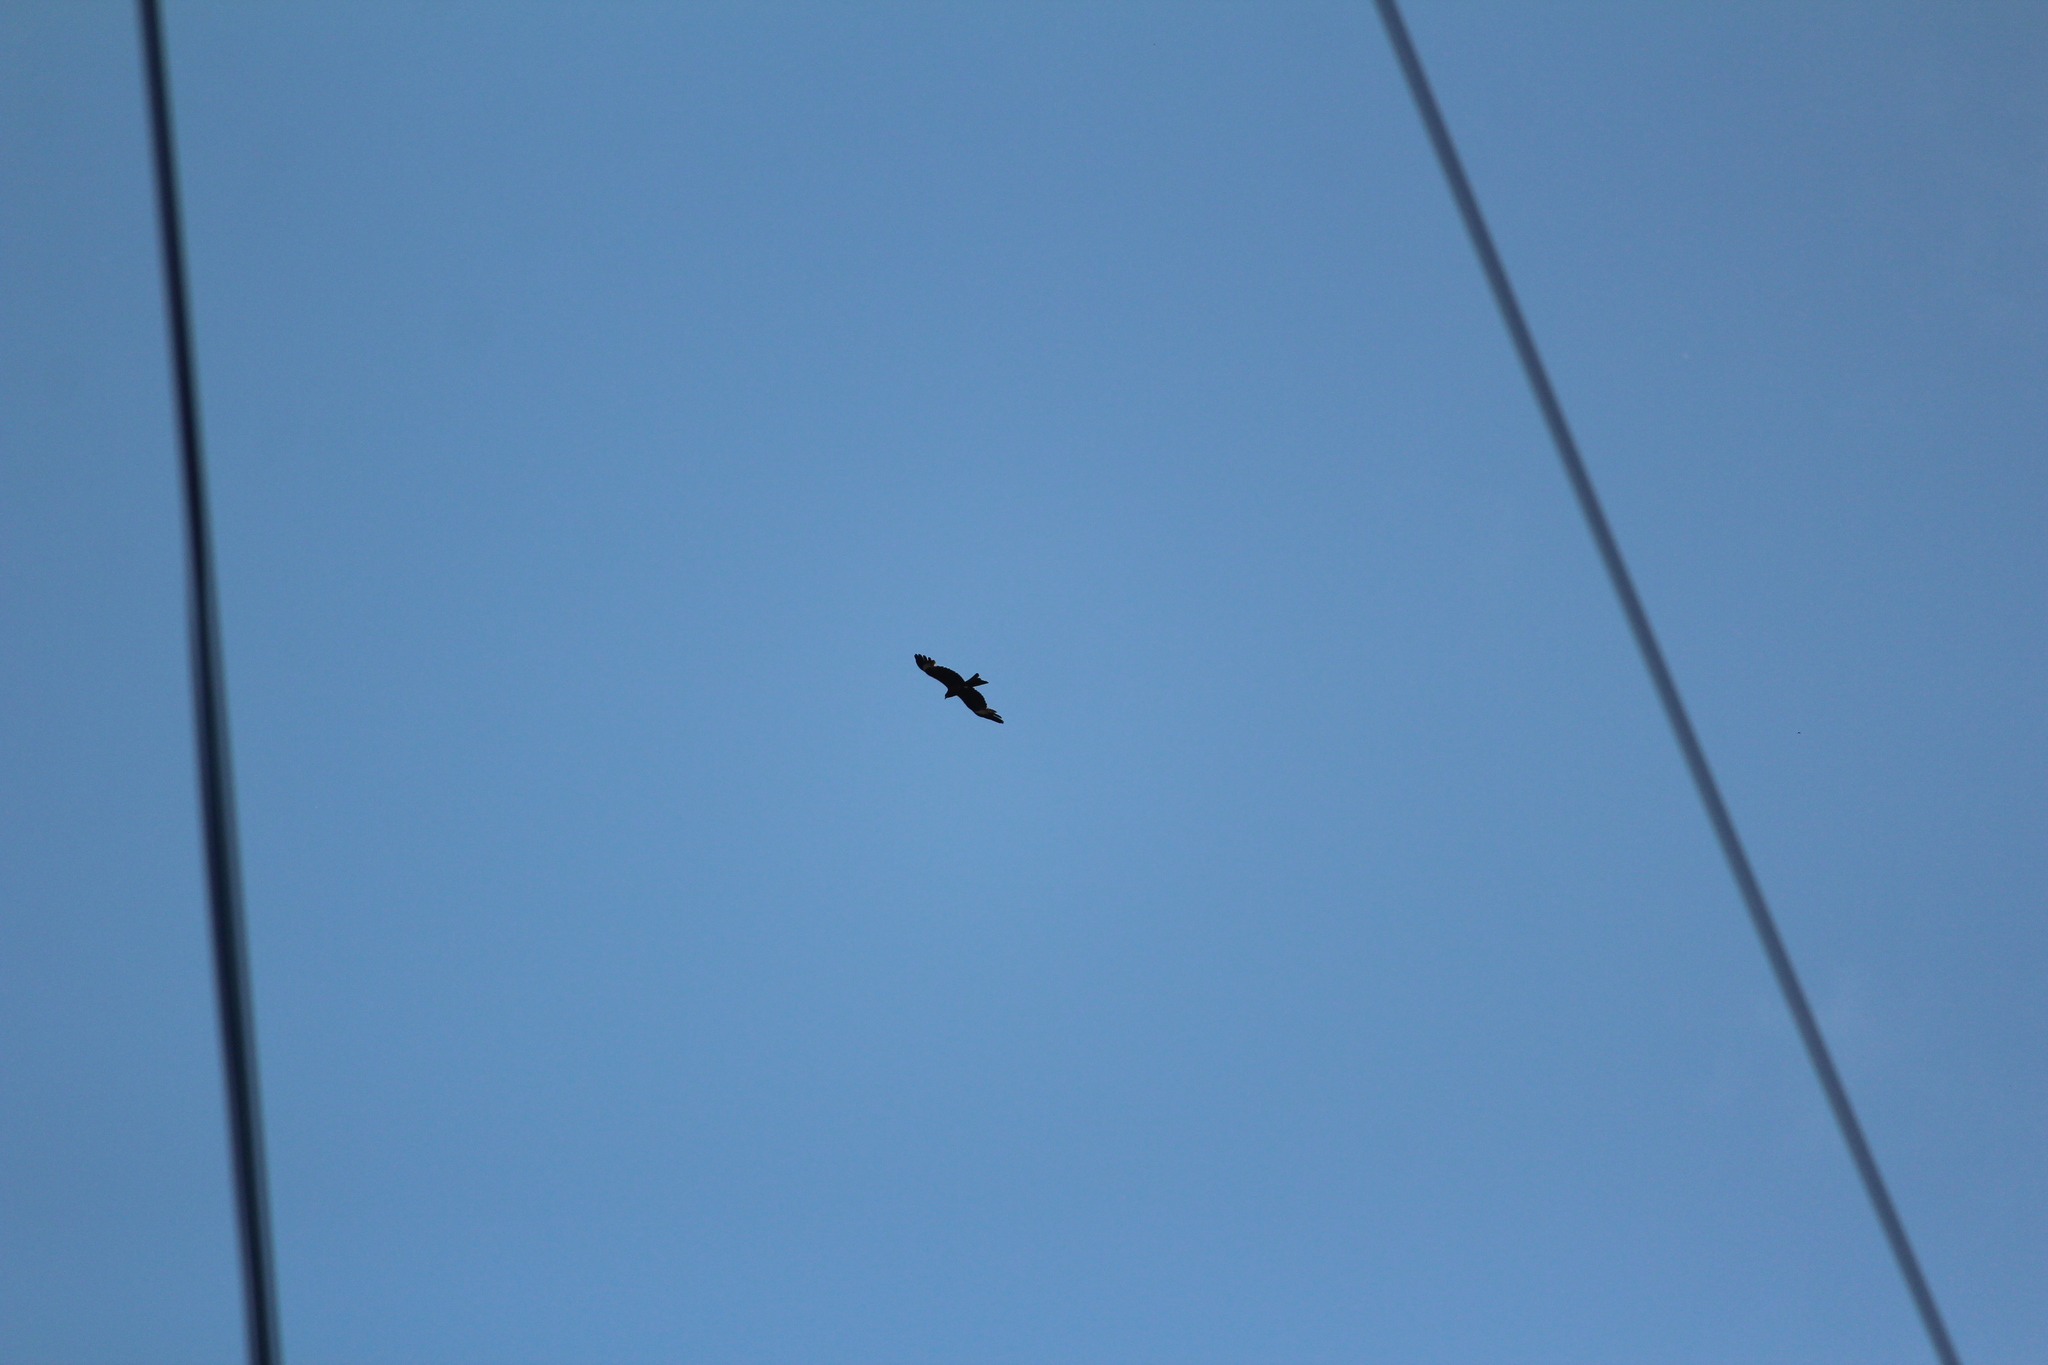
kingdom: Animalia
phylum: Chordata
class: Aves
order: Accipitriformes
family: Accipitridae
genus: Milvus
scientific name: Milvus migrans
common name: Black kite
